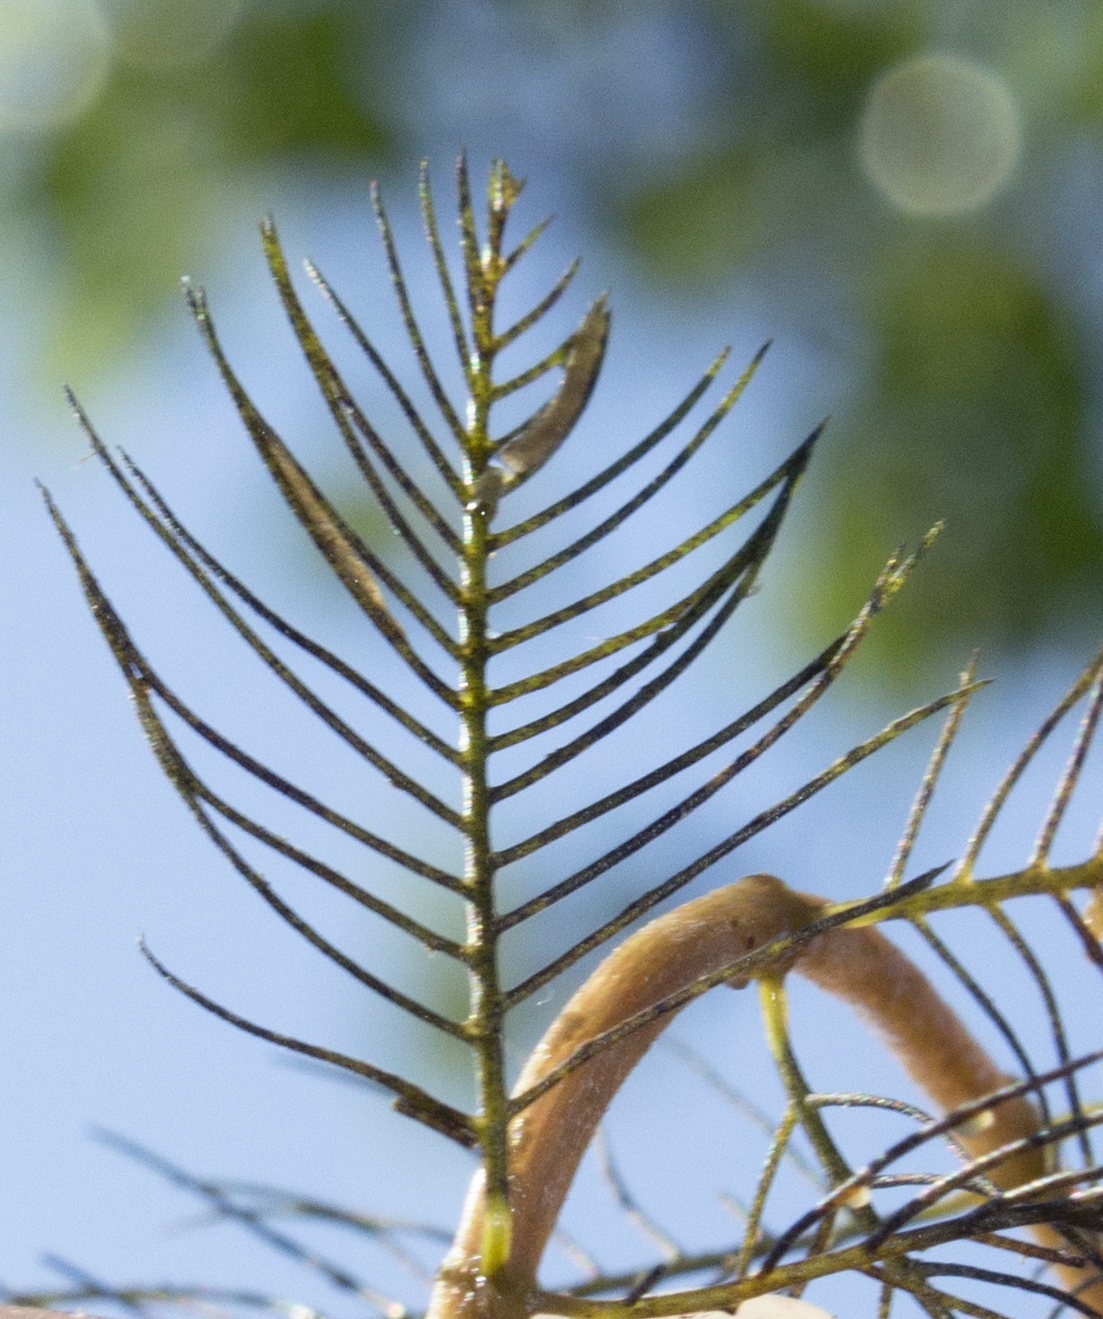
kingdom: Plantae
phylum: Tracheophyta
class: Magnoliopsida
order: Saxifragales
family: Haloragaceae
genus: Myriophyllum
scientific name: Myriophyllum spicatum
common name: Spiked water-milfoil
